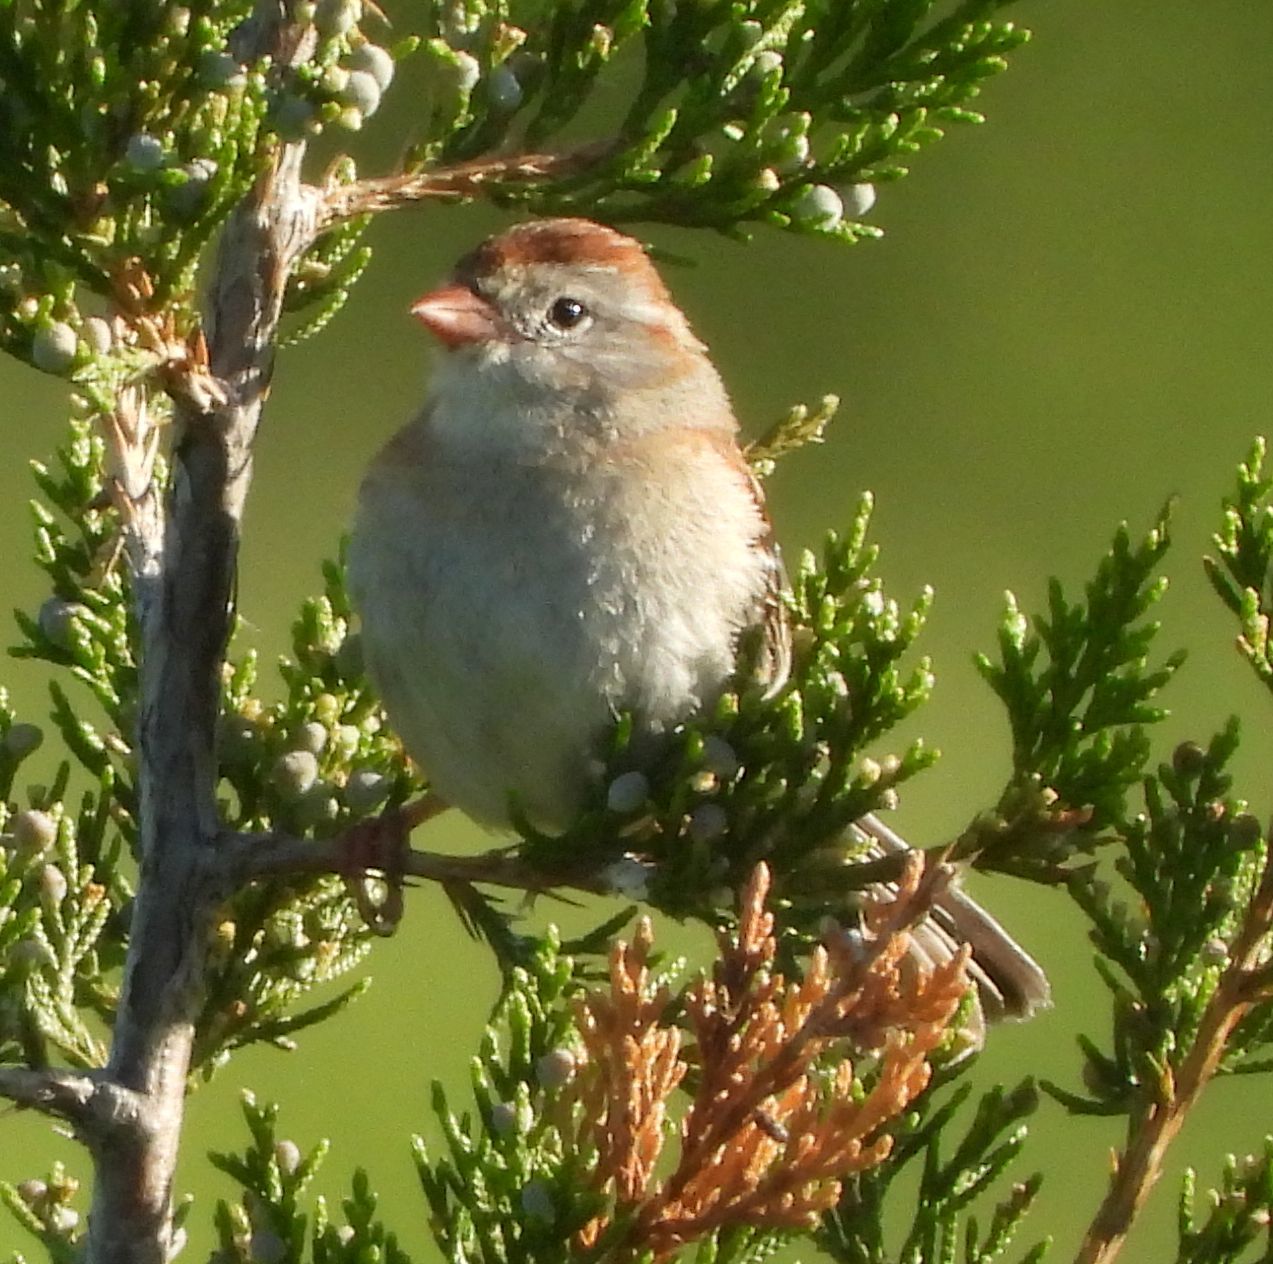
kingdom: Animalia
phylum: Chordata
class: Aves
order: Passeriformes
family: Passerellidae
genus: Spizella
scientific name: Spizella pusilla
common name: Field sparrow
